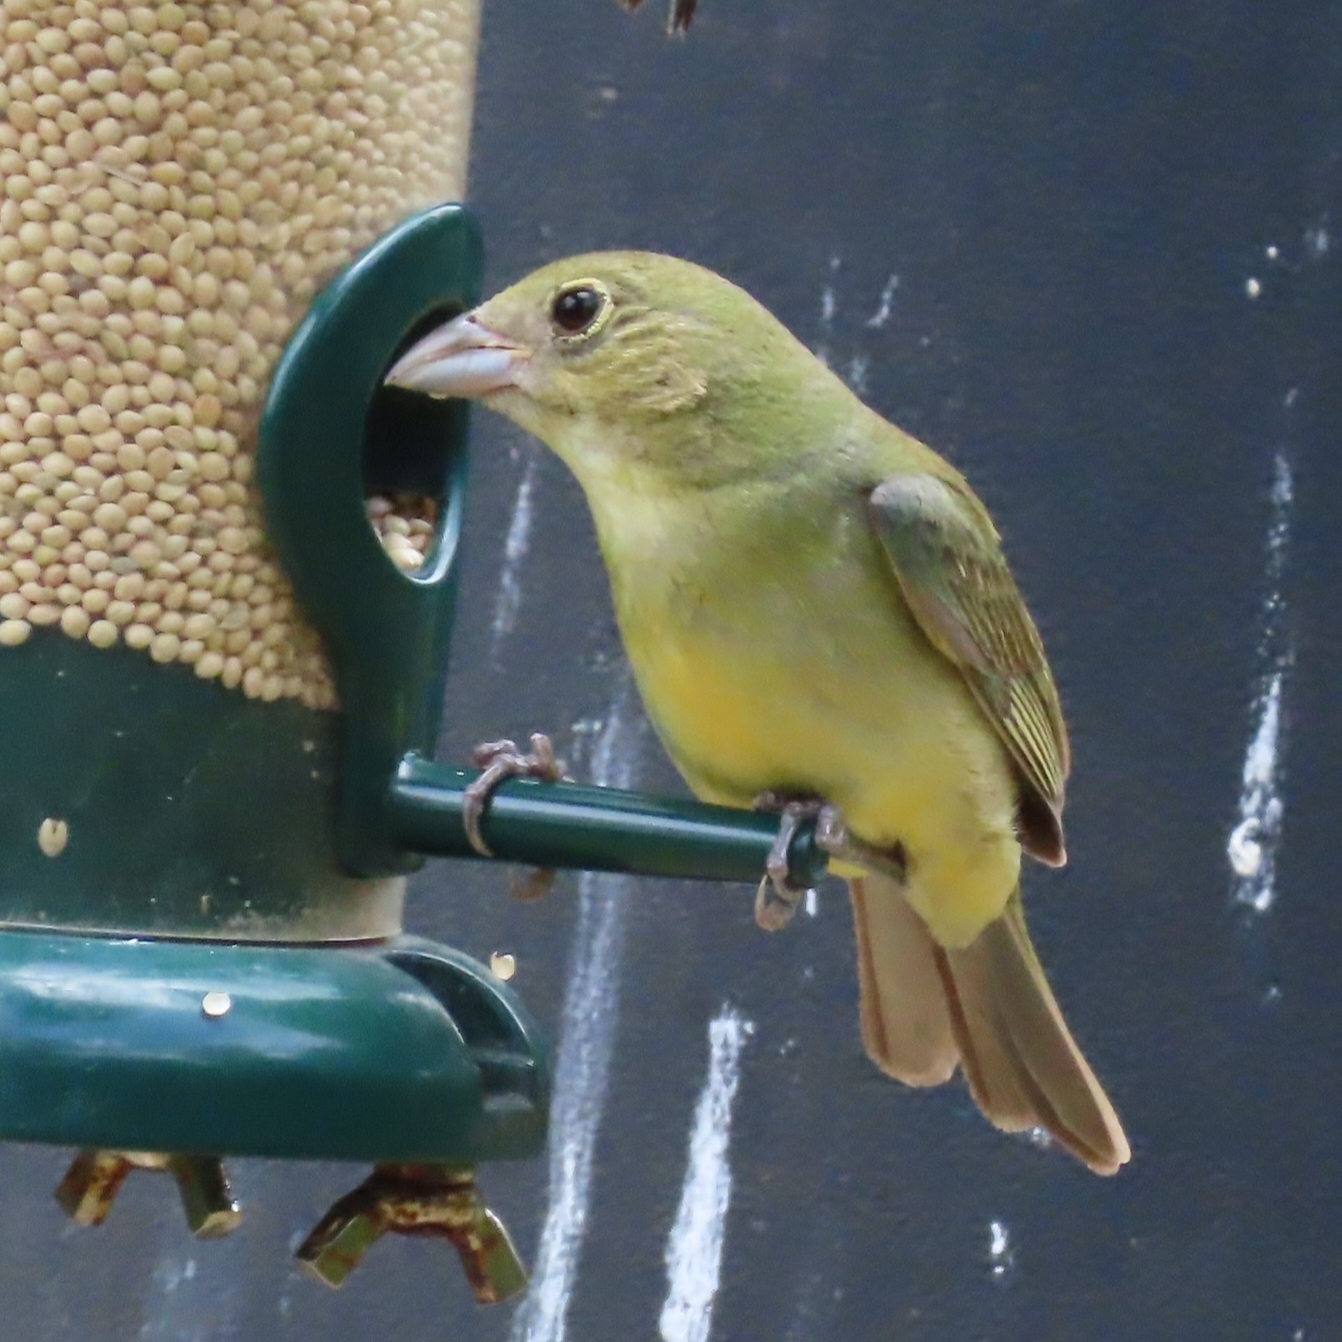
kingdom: Animalia
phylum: Chordata
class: Aves
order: Passeriformes
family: Cardinalidae
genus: Passerina
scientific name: Passerina ciris
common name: Painted bunting
